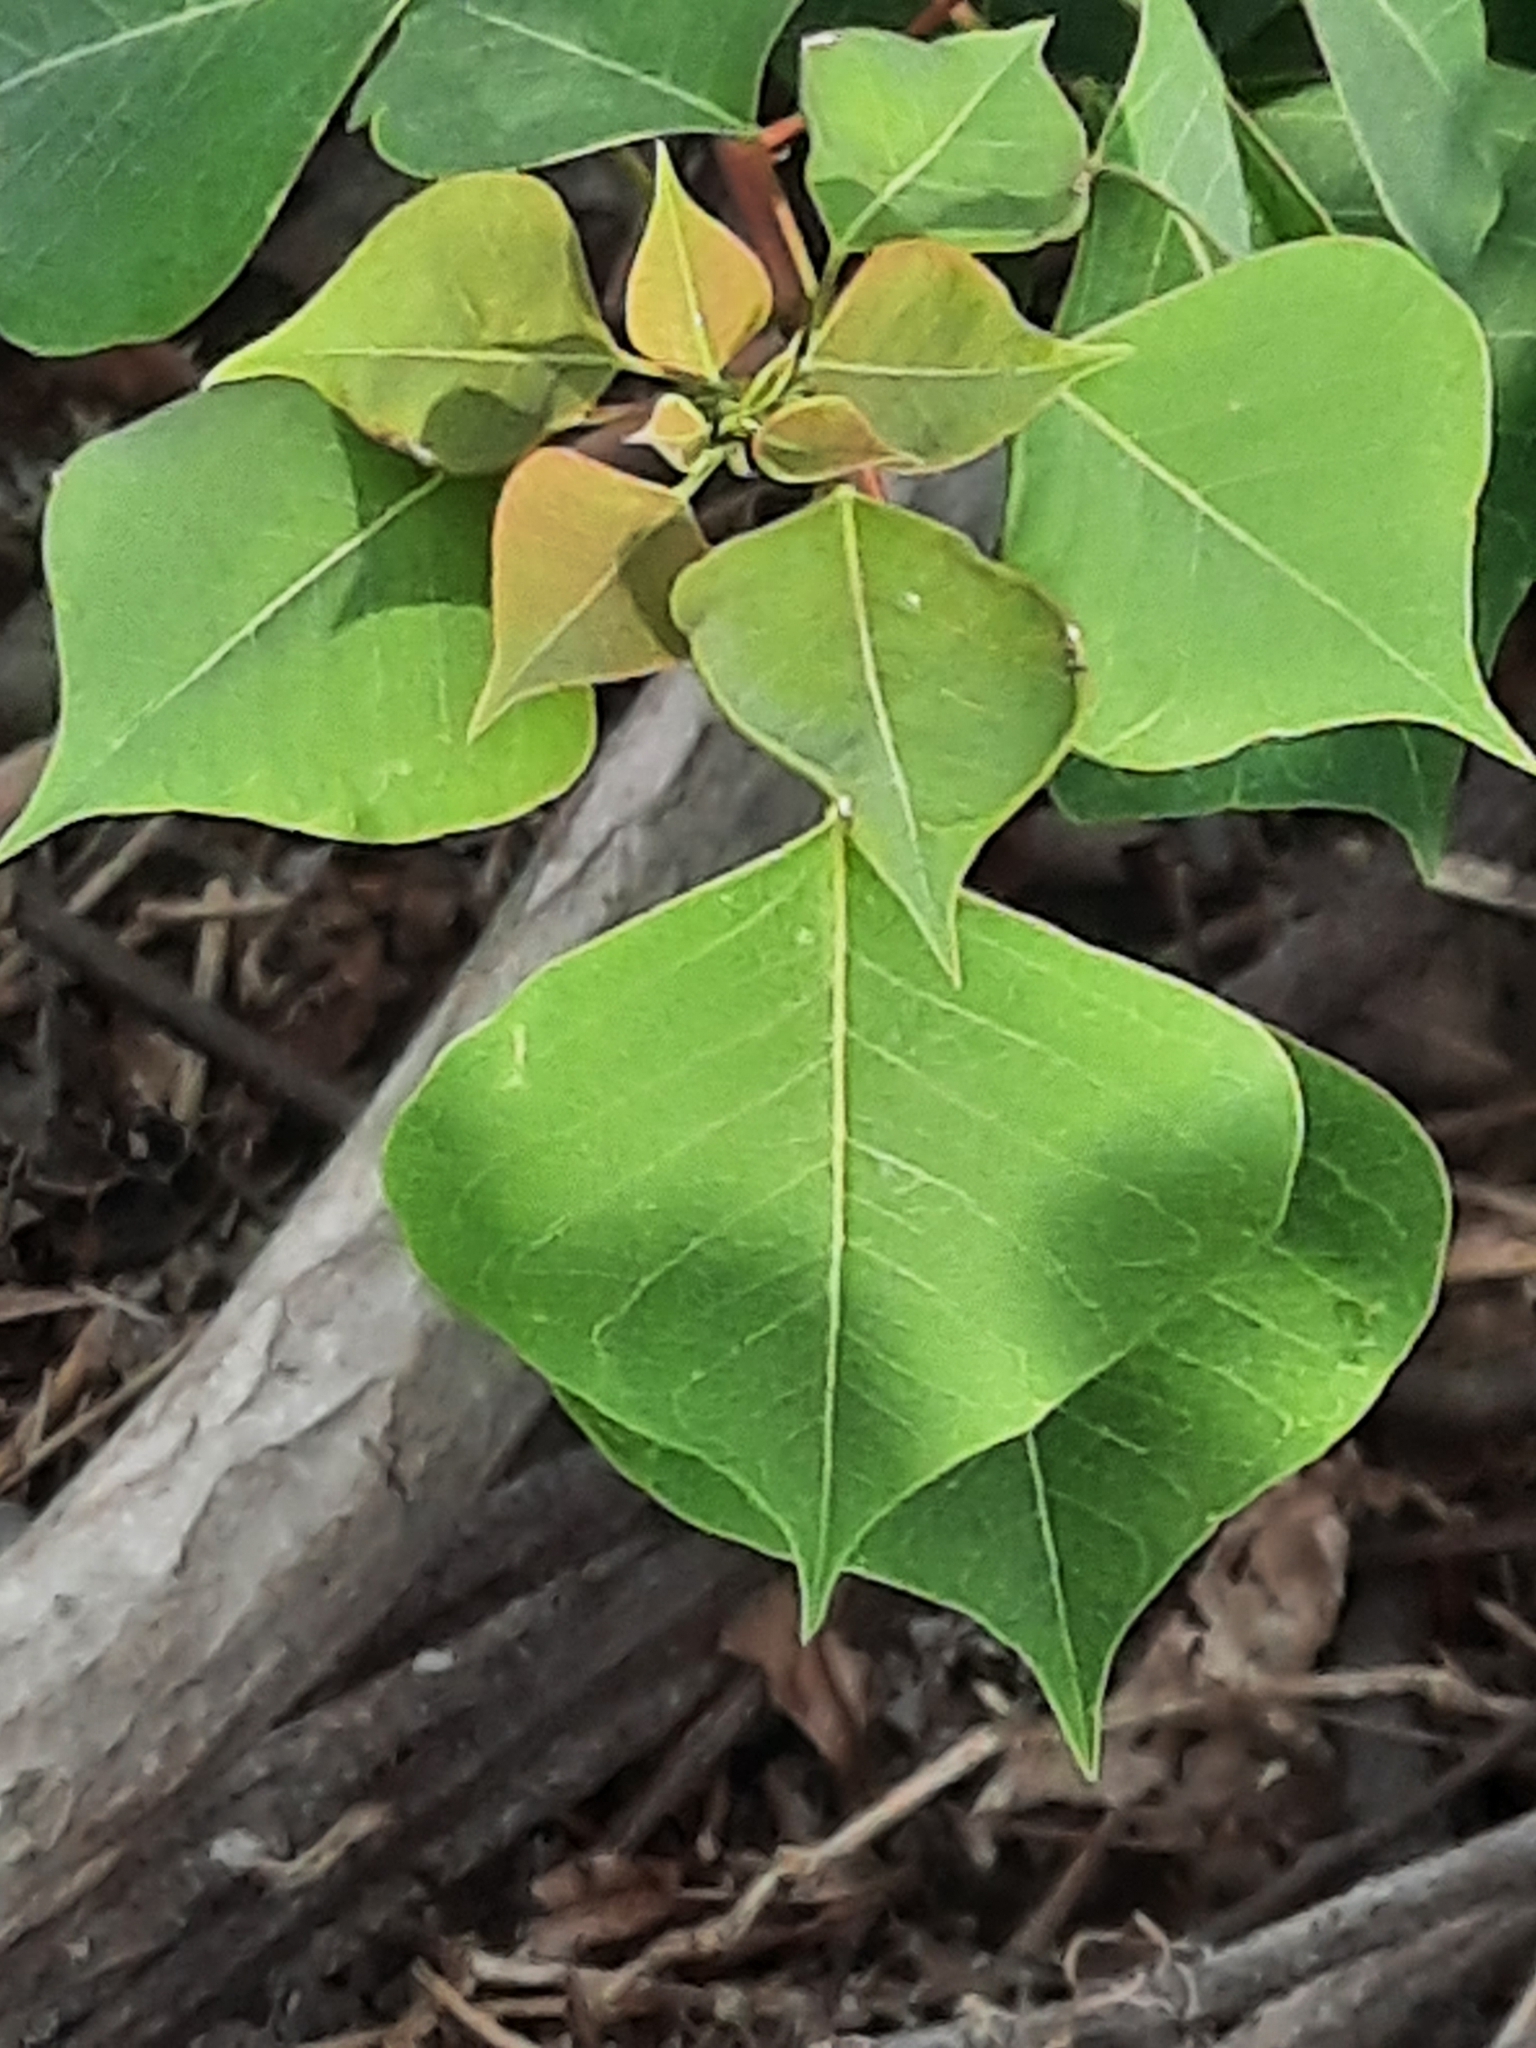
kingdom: Plantae
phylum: Tracheophyta
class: Magnoliopsida
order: Malpighiales
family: Euphorbiaceae
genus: Triadica
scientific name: Triadica sebifera
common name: Chinese tallow
